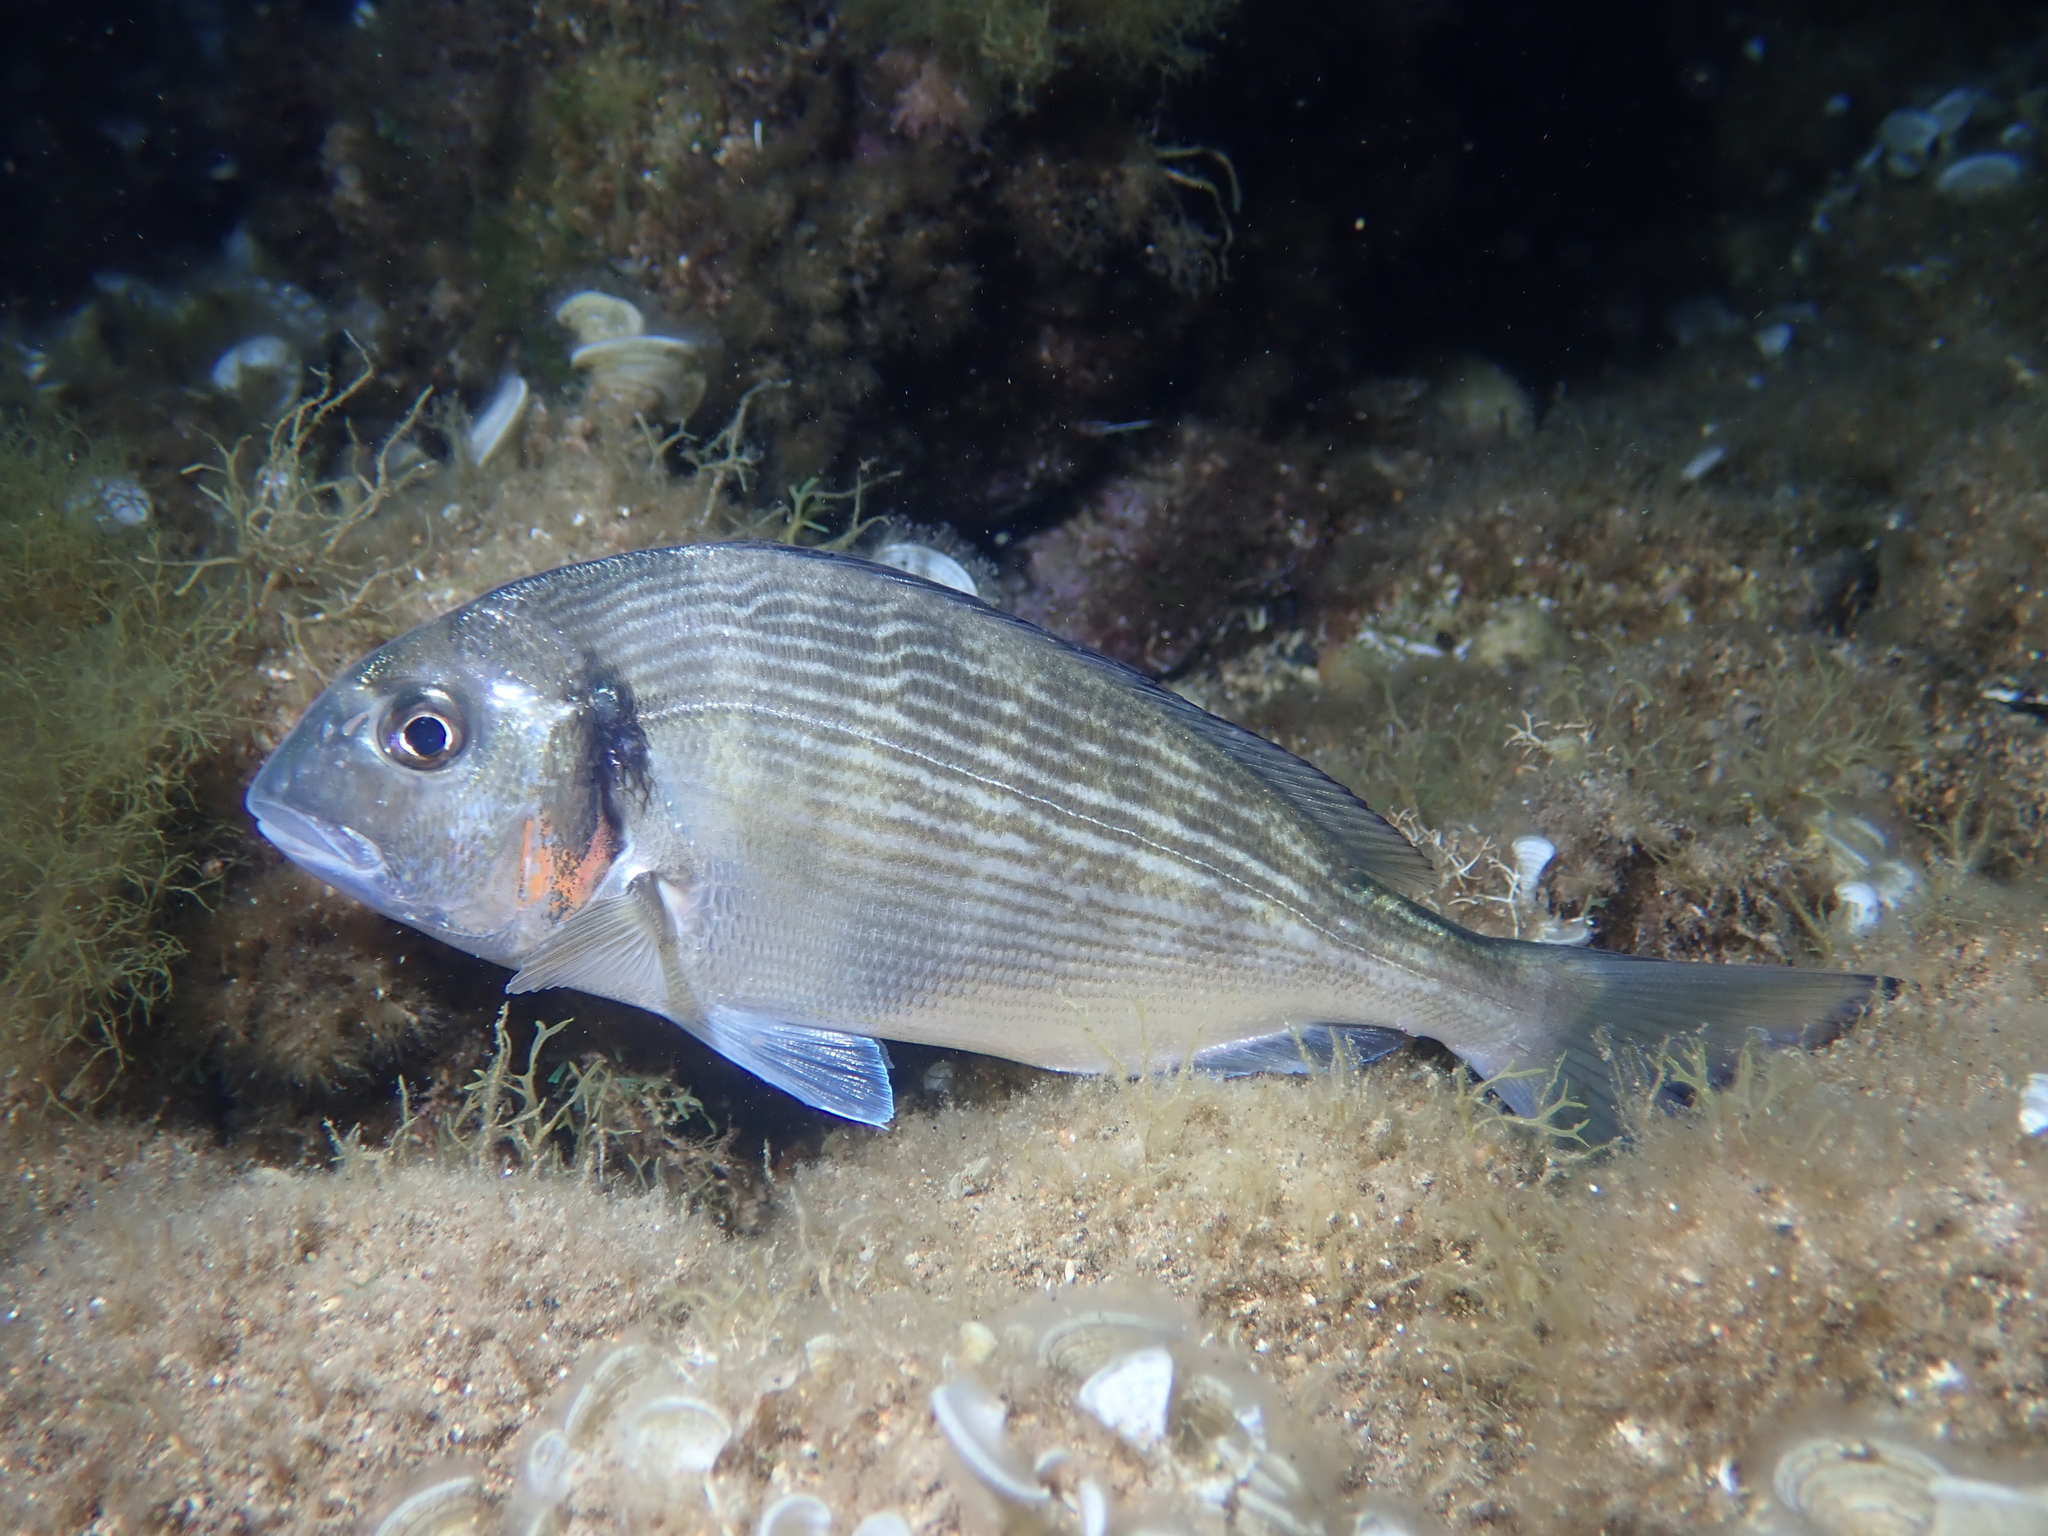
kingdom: Animalia
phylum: Chordata
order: Perciformes
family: Sparidae
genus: Sparus
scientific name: Sparus aurata
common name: Gilthead
